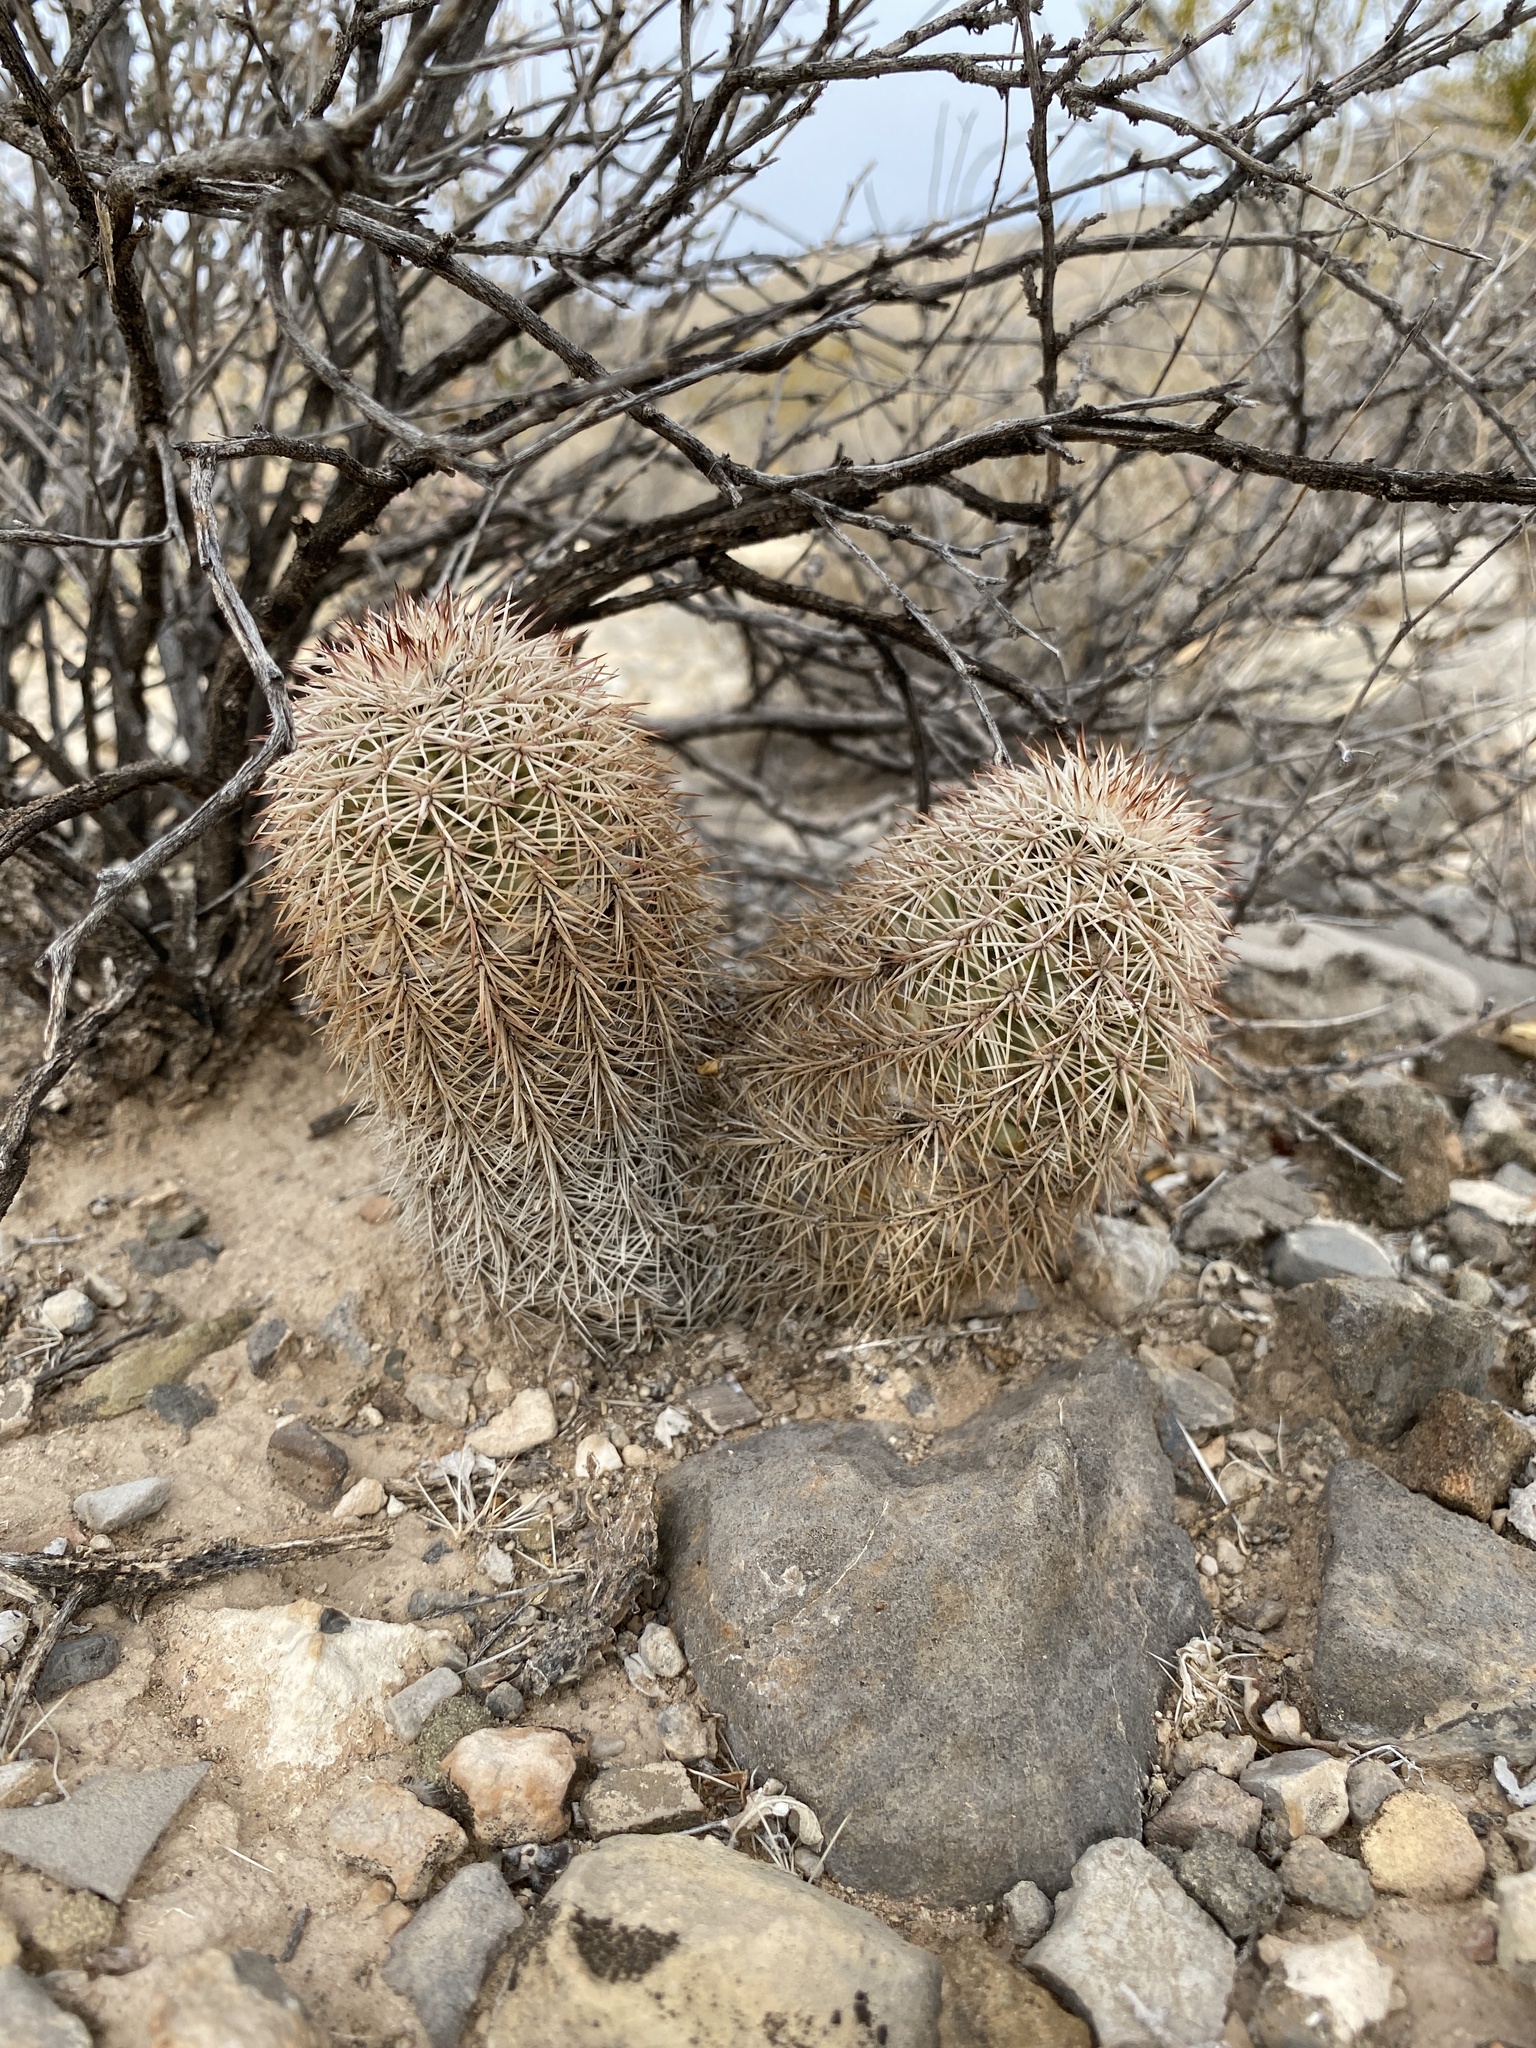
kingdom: Plantae
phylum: Tracheophyta
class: Magnoliopsida
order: Caryophyllales
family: Cactaceae
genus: Echinocereus
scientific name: Echinocereus roetteri
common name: Lloyd's hedgehog cactus
